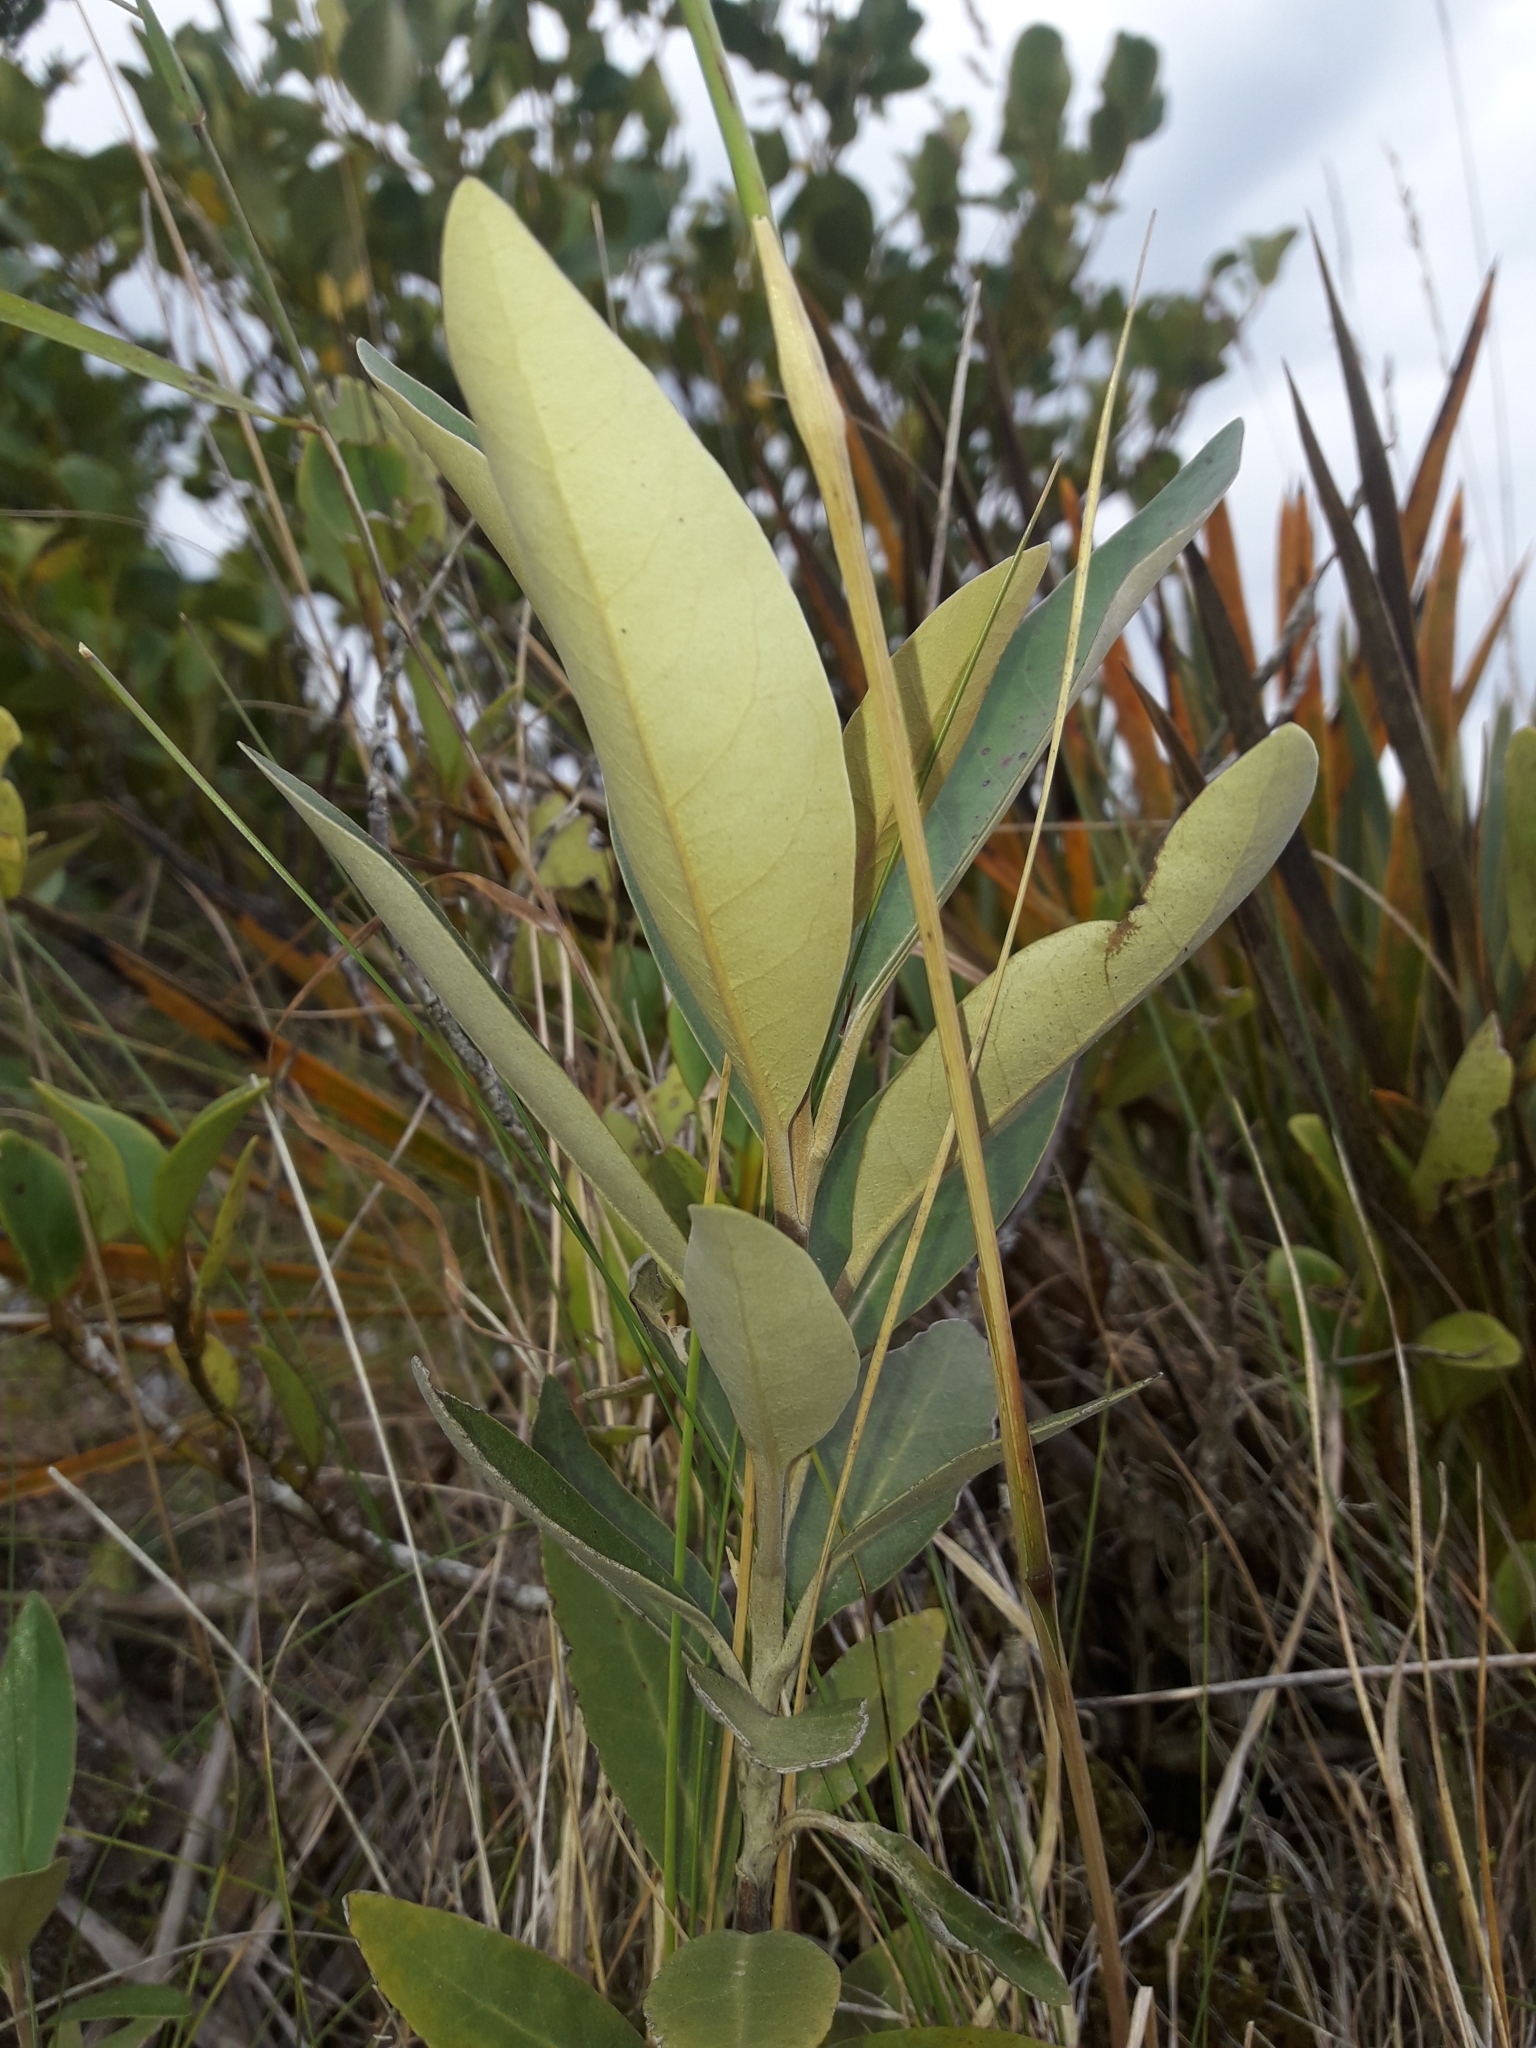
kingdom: Plantae
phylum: Tracheophyta
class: Magnoliopsida
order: Asterales
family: Asteraceae
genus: Olearia
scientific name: Olearia avicenniifolia
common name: Mangrove-leaf daisybush
